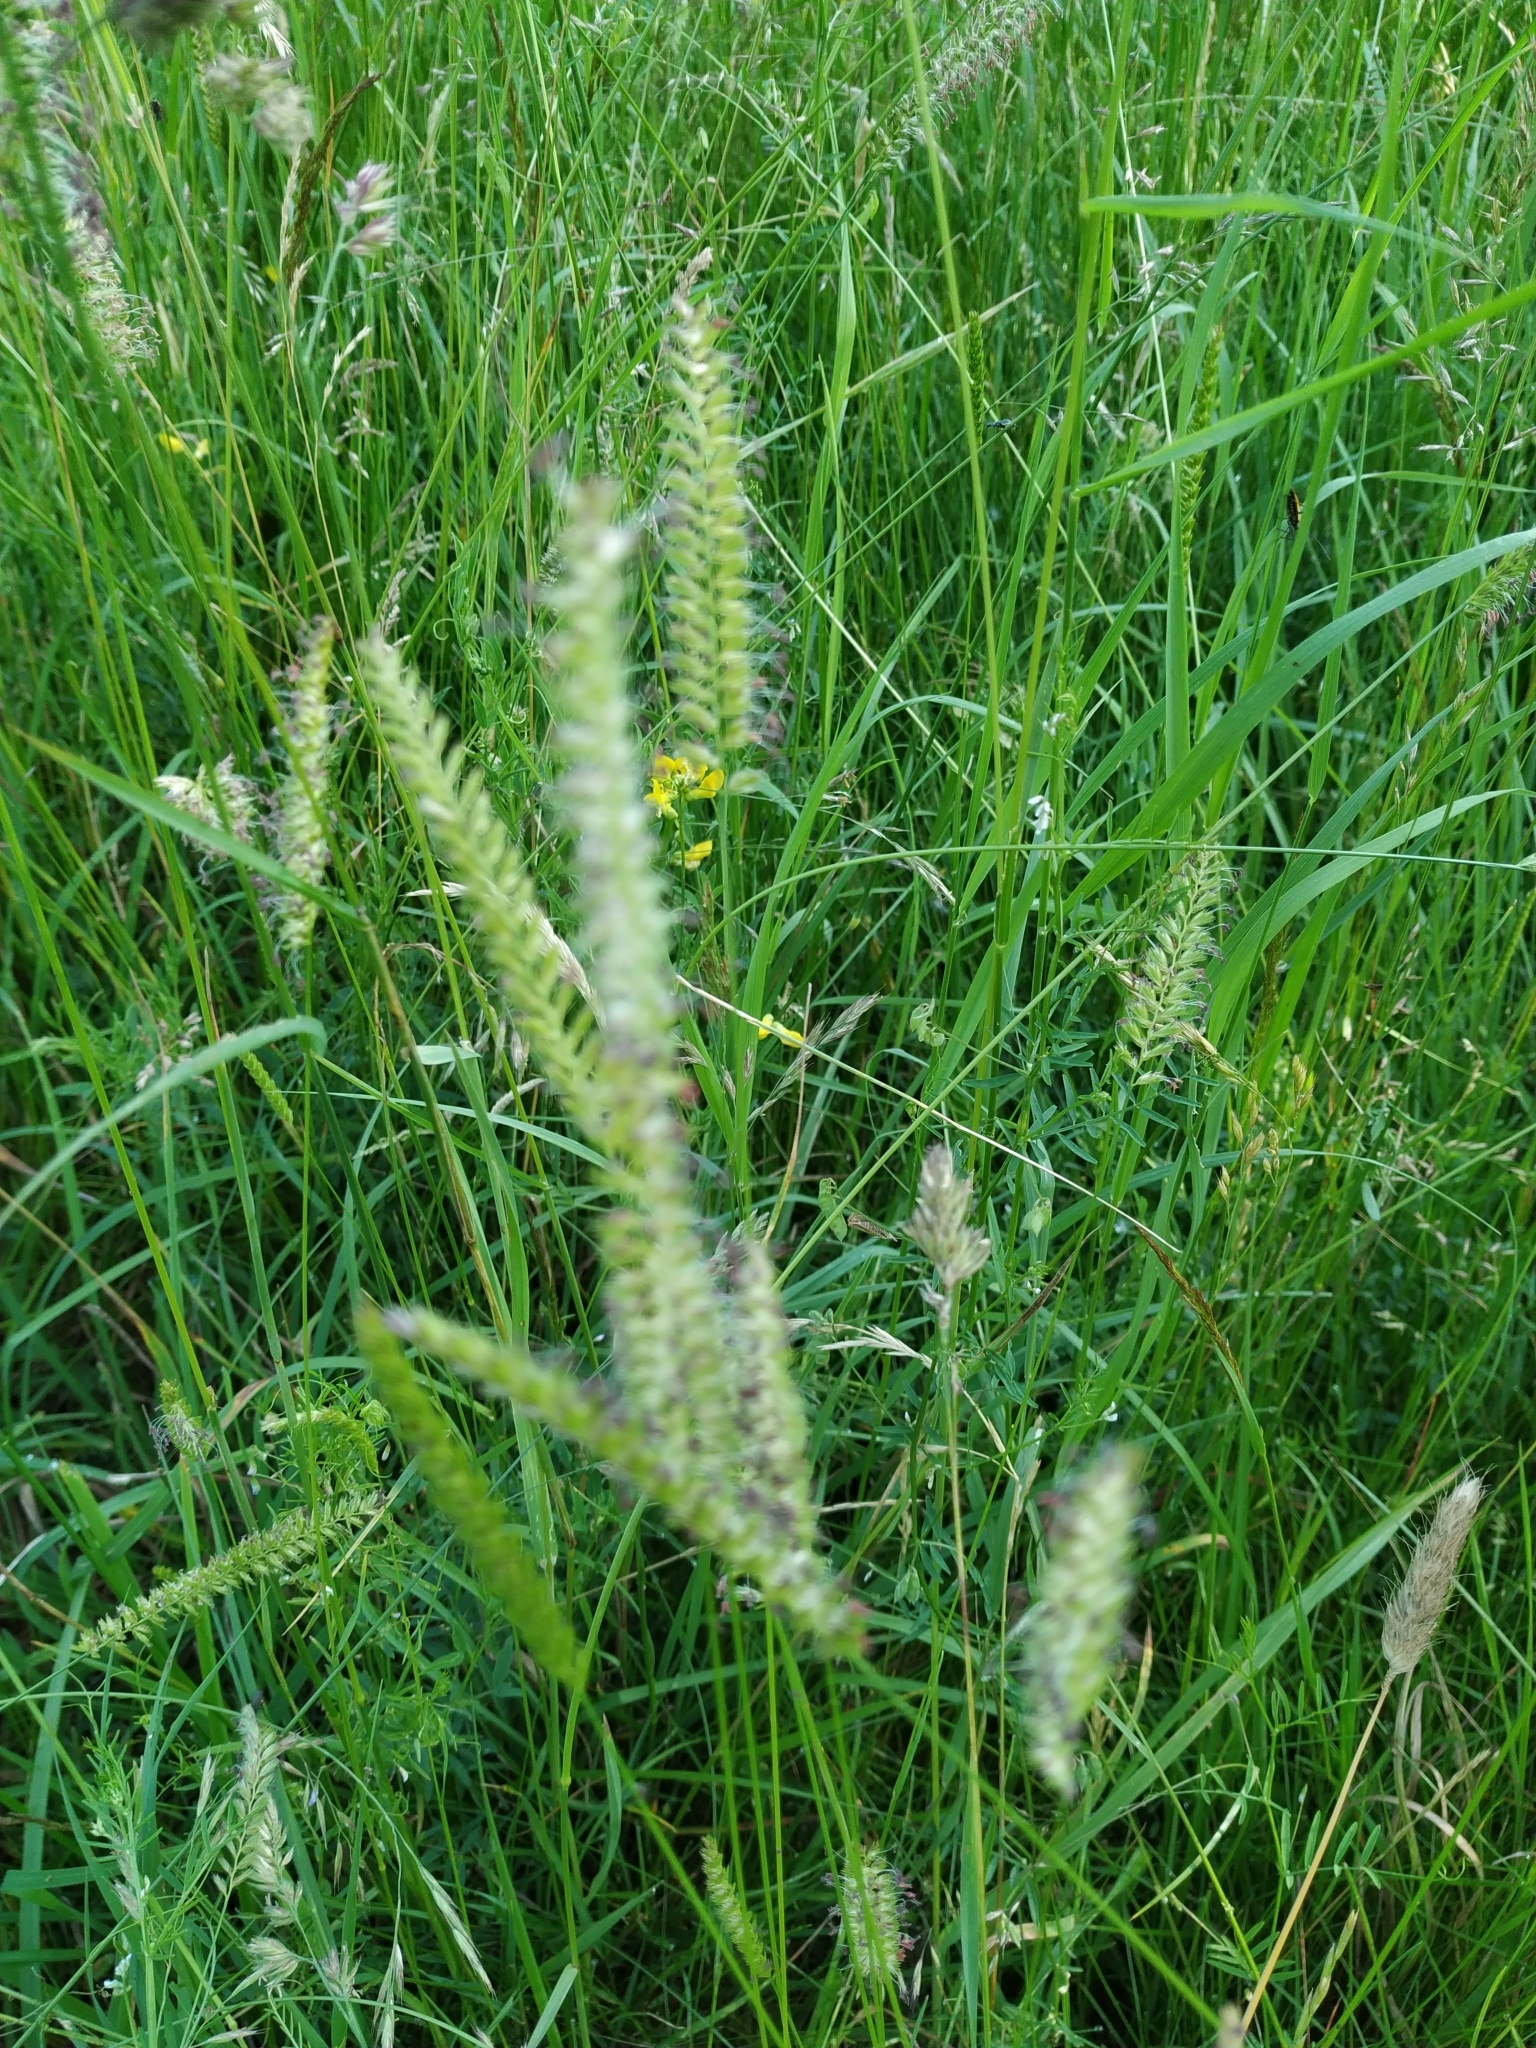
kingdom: Plantae
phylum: Tracheophyta
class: Liliopsida
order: Poales
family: Poaceae
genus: Cynosurus
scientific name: Cynosurus cristatus
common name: Crested dog's-tail
